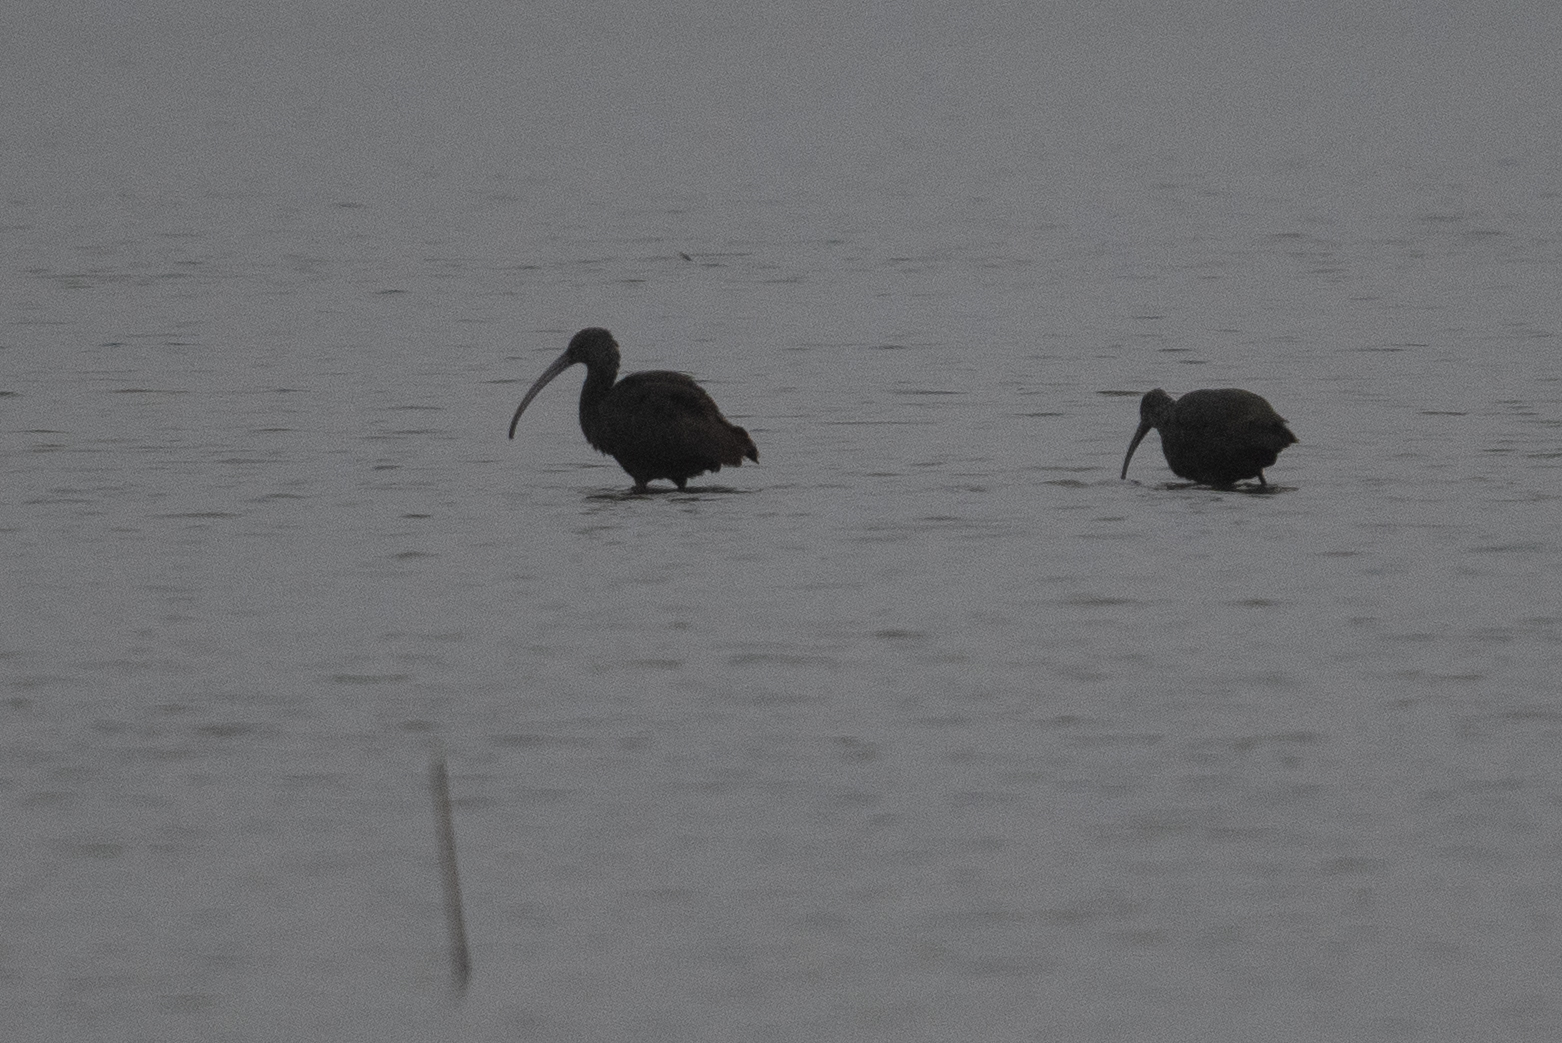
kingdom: Animalia
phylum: Chordata
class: Aves
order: Pelecaniformes
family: Threskiornithidae
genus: Plegadis
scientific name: Plegadis chihi
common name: White-faced ibis
